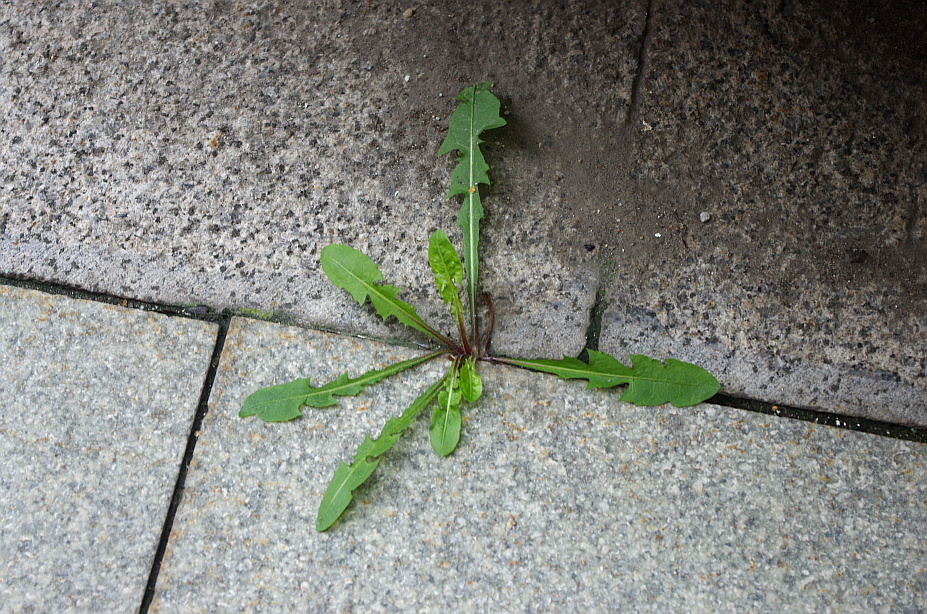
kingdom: Plantae
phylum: Tracheophyta
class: Magnoliopsida
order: Asterales
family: Asteraceae
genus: Taraxacum
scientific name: Taraxacum officinale
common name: Common dandelion
